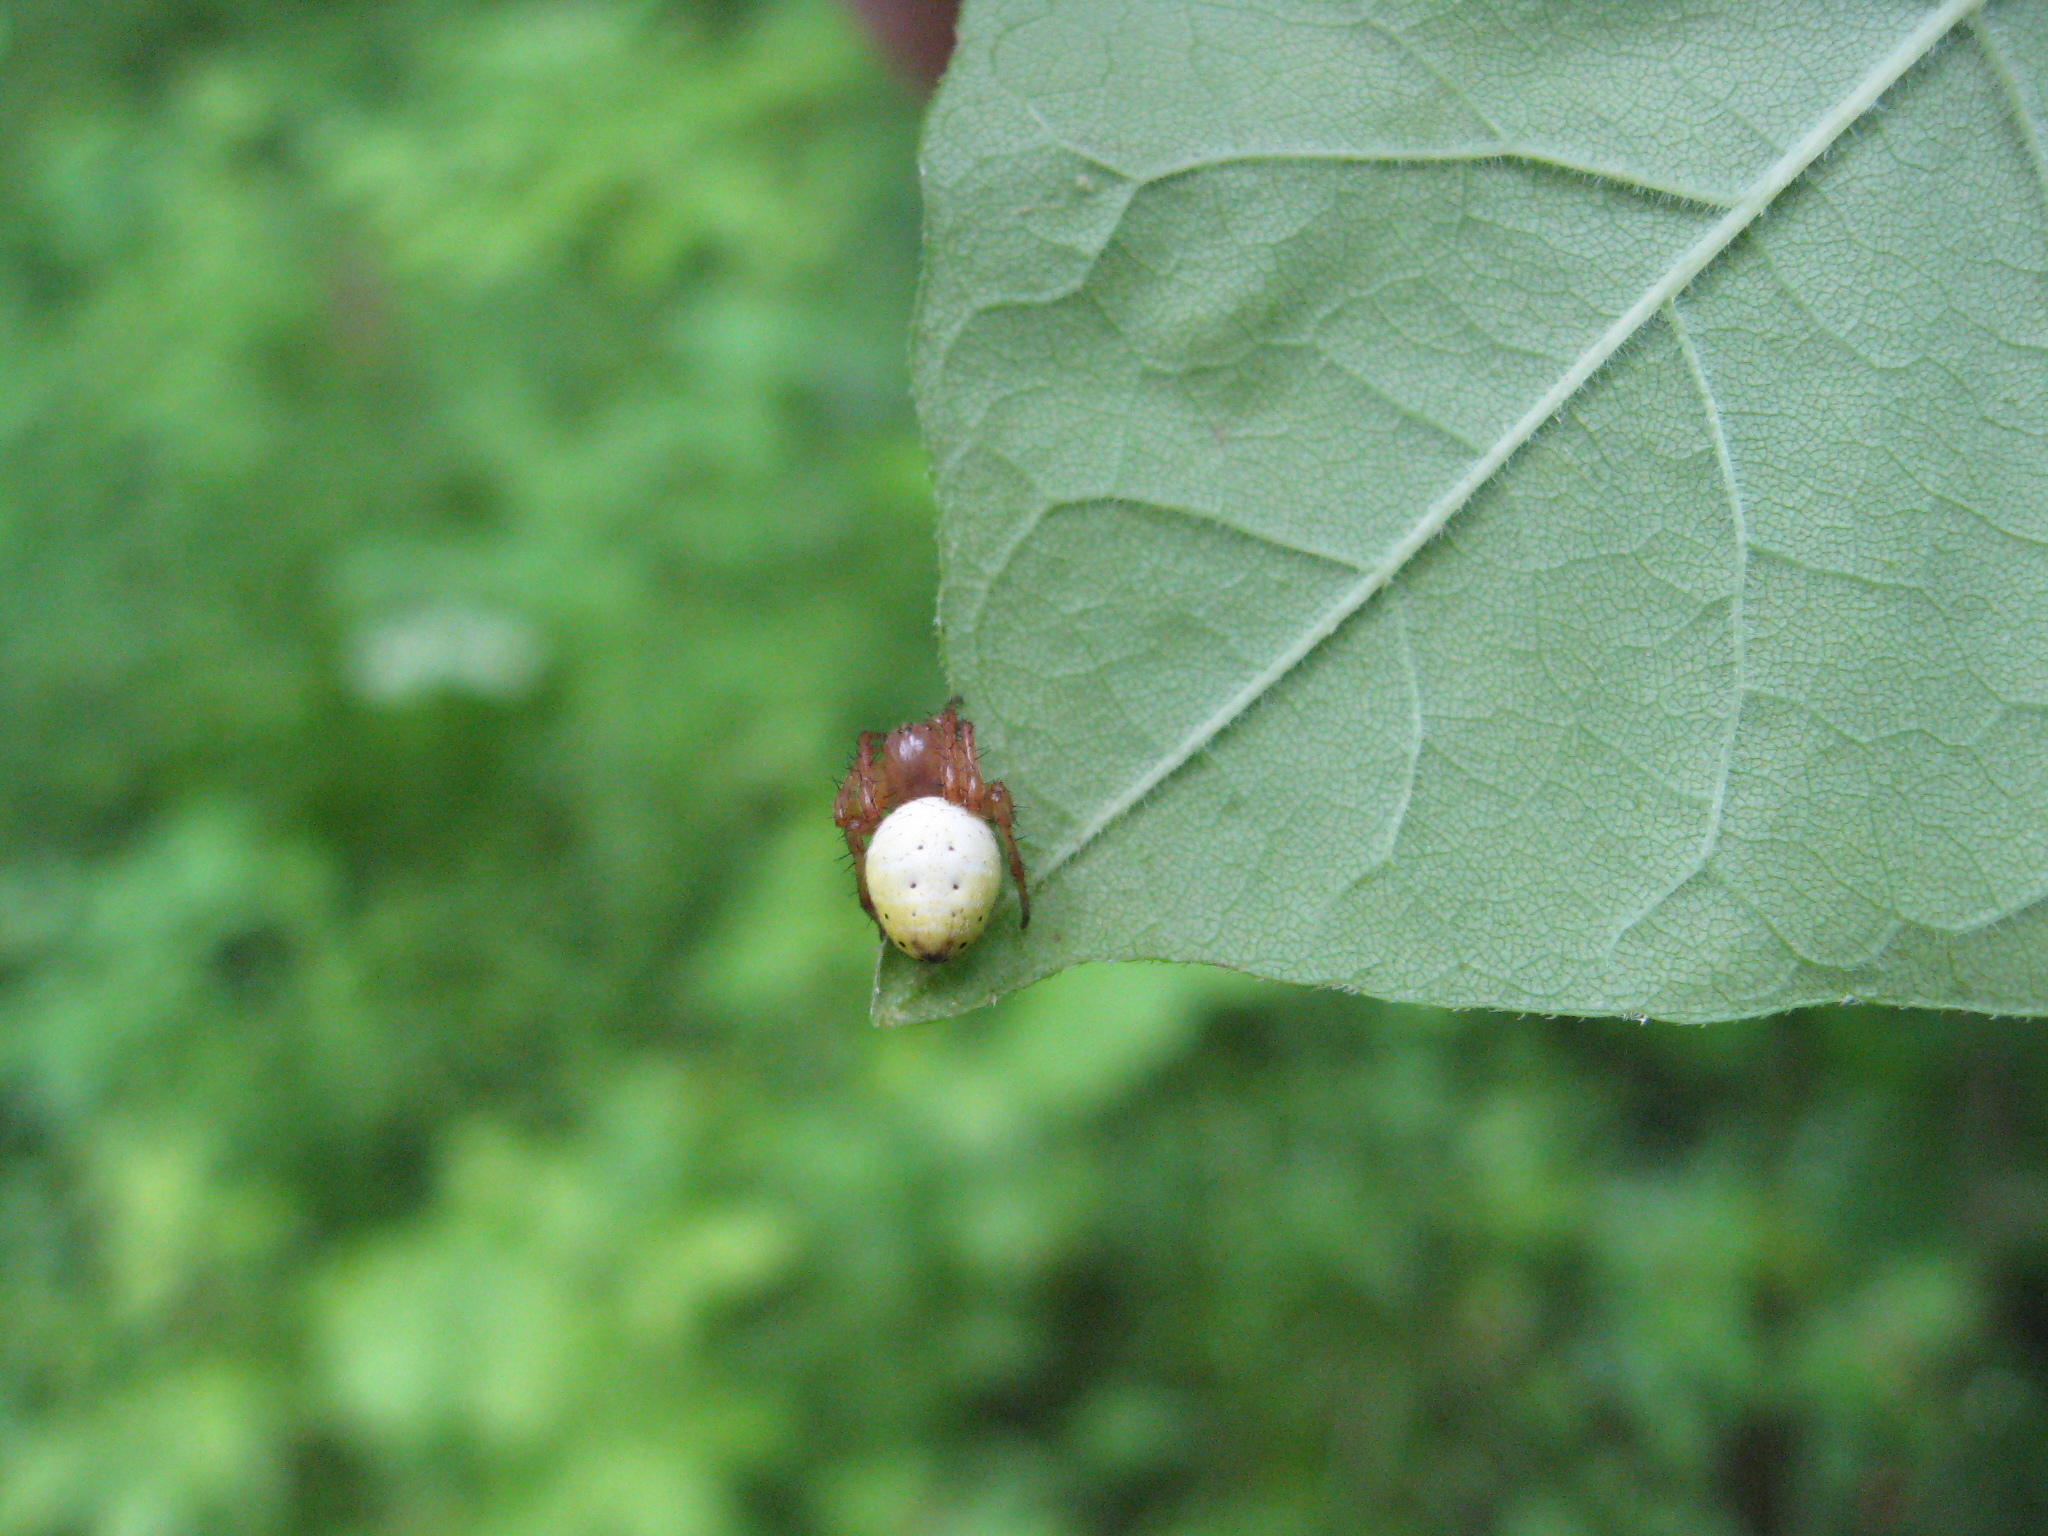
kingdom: Animalia
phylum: Arthropoda
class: Arachnida
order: Araneae
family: Araneidae
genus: Araniella
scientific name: Araniella displicata
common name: Sixspotted orb weaver
